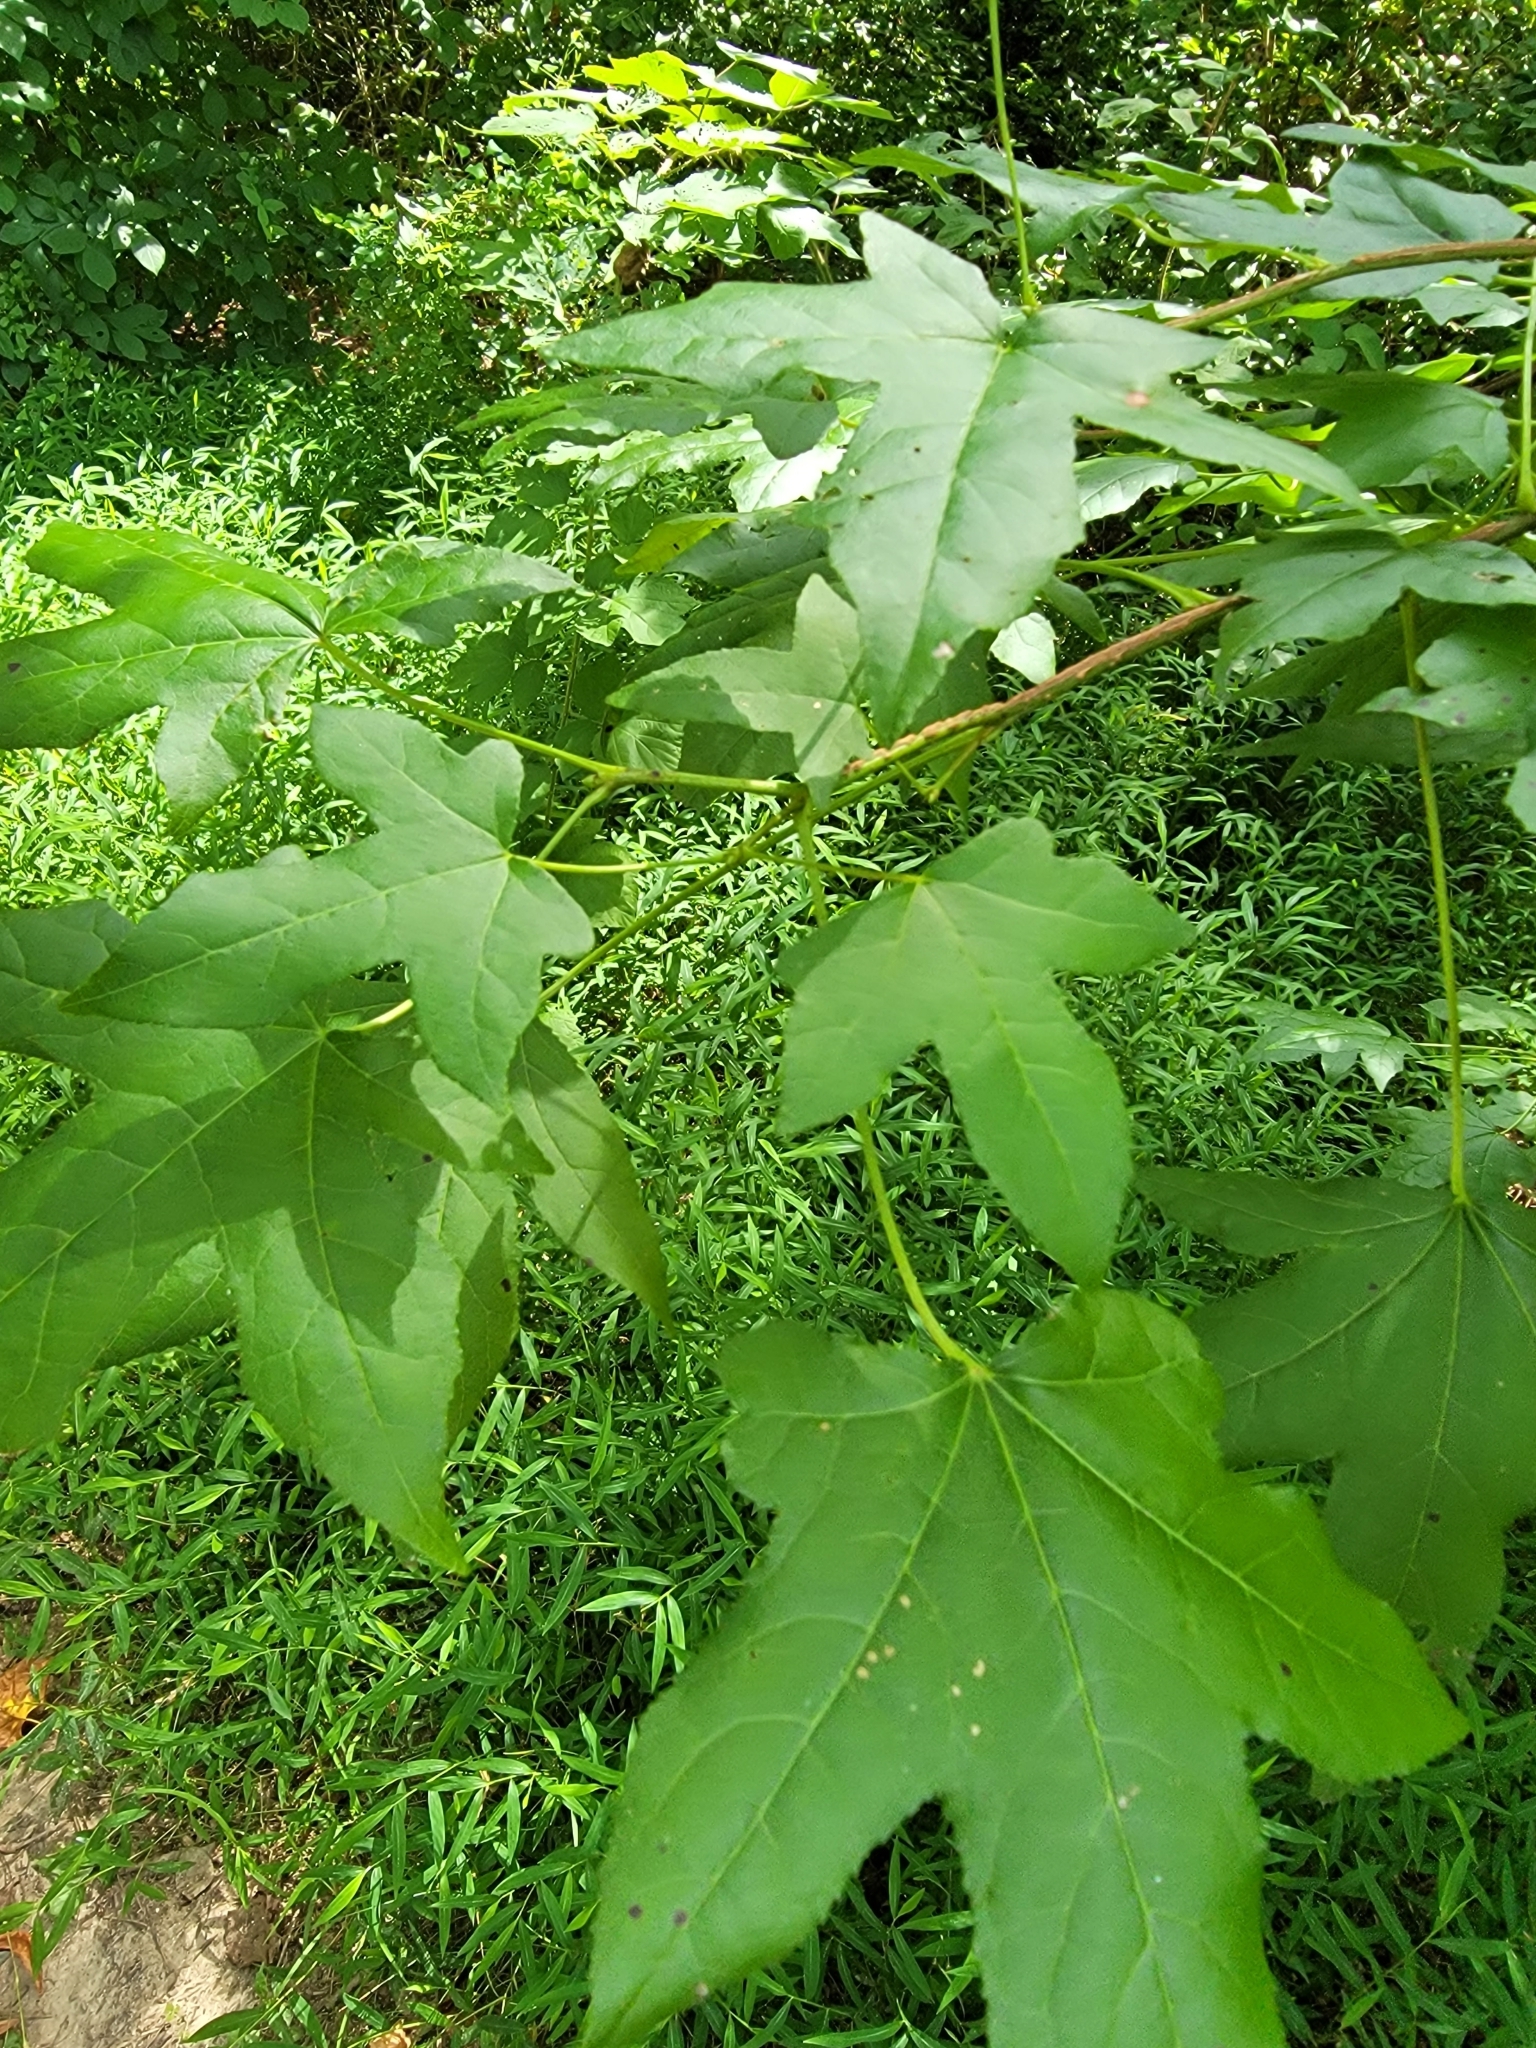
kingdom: Plantae
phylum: Tracheophyta
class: Magnoliopsida
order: Saxifragales
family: Altingiaceae
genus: Liquidambar
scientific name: Liquidambar styraciflua
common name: Sweet gum
